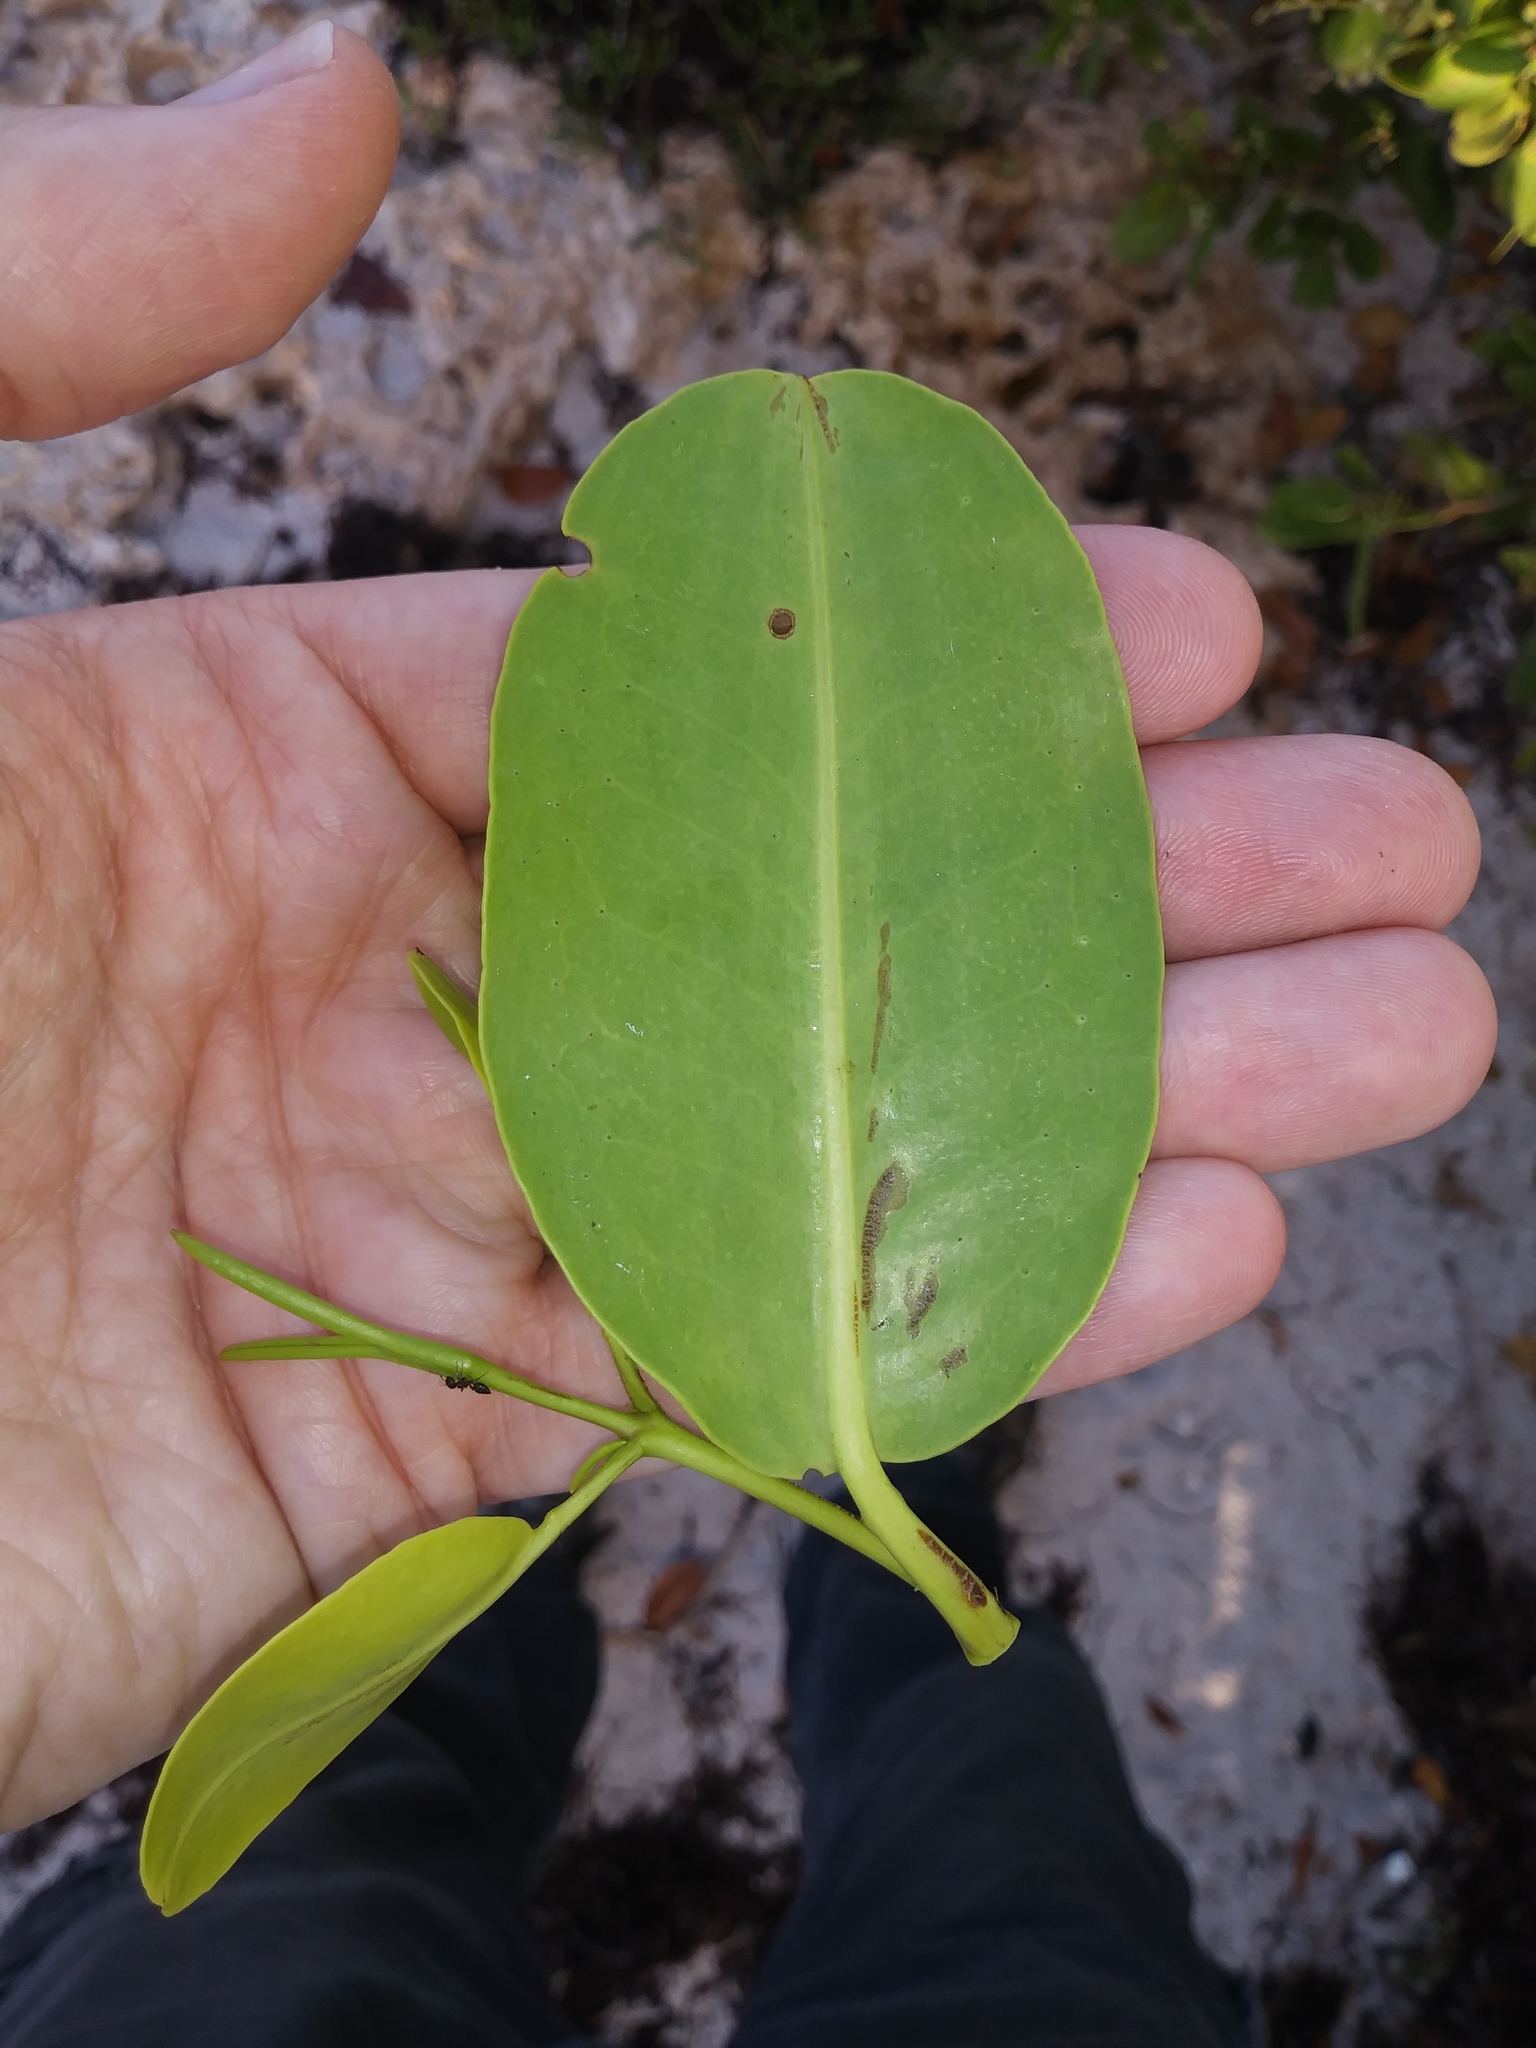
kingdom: Plantae
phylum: Tracheophyta
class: Magnoliopsida
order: Myrtales
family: Combretaceae
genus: Laguncularia
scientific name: Laguncularia racemosa
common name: White mangrove
